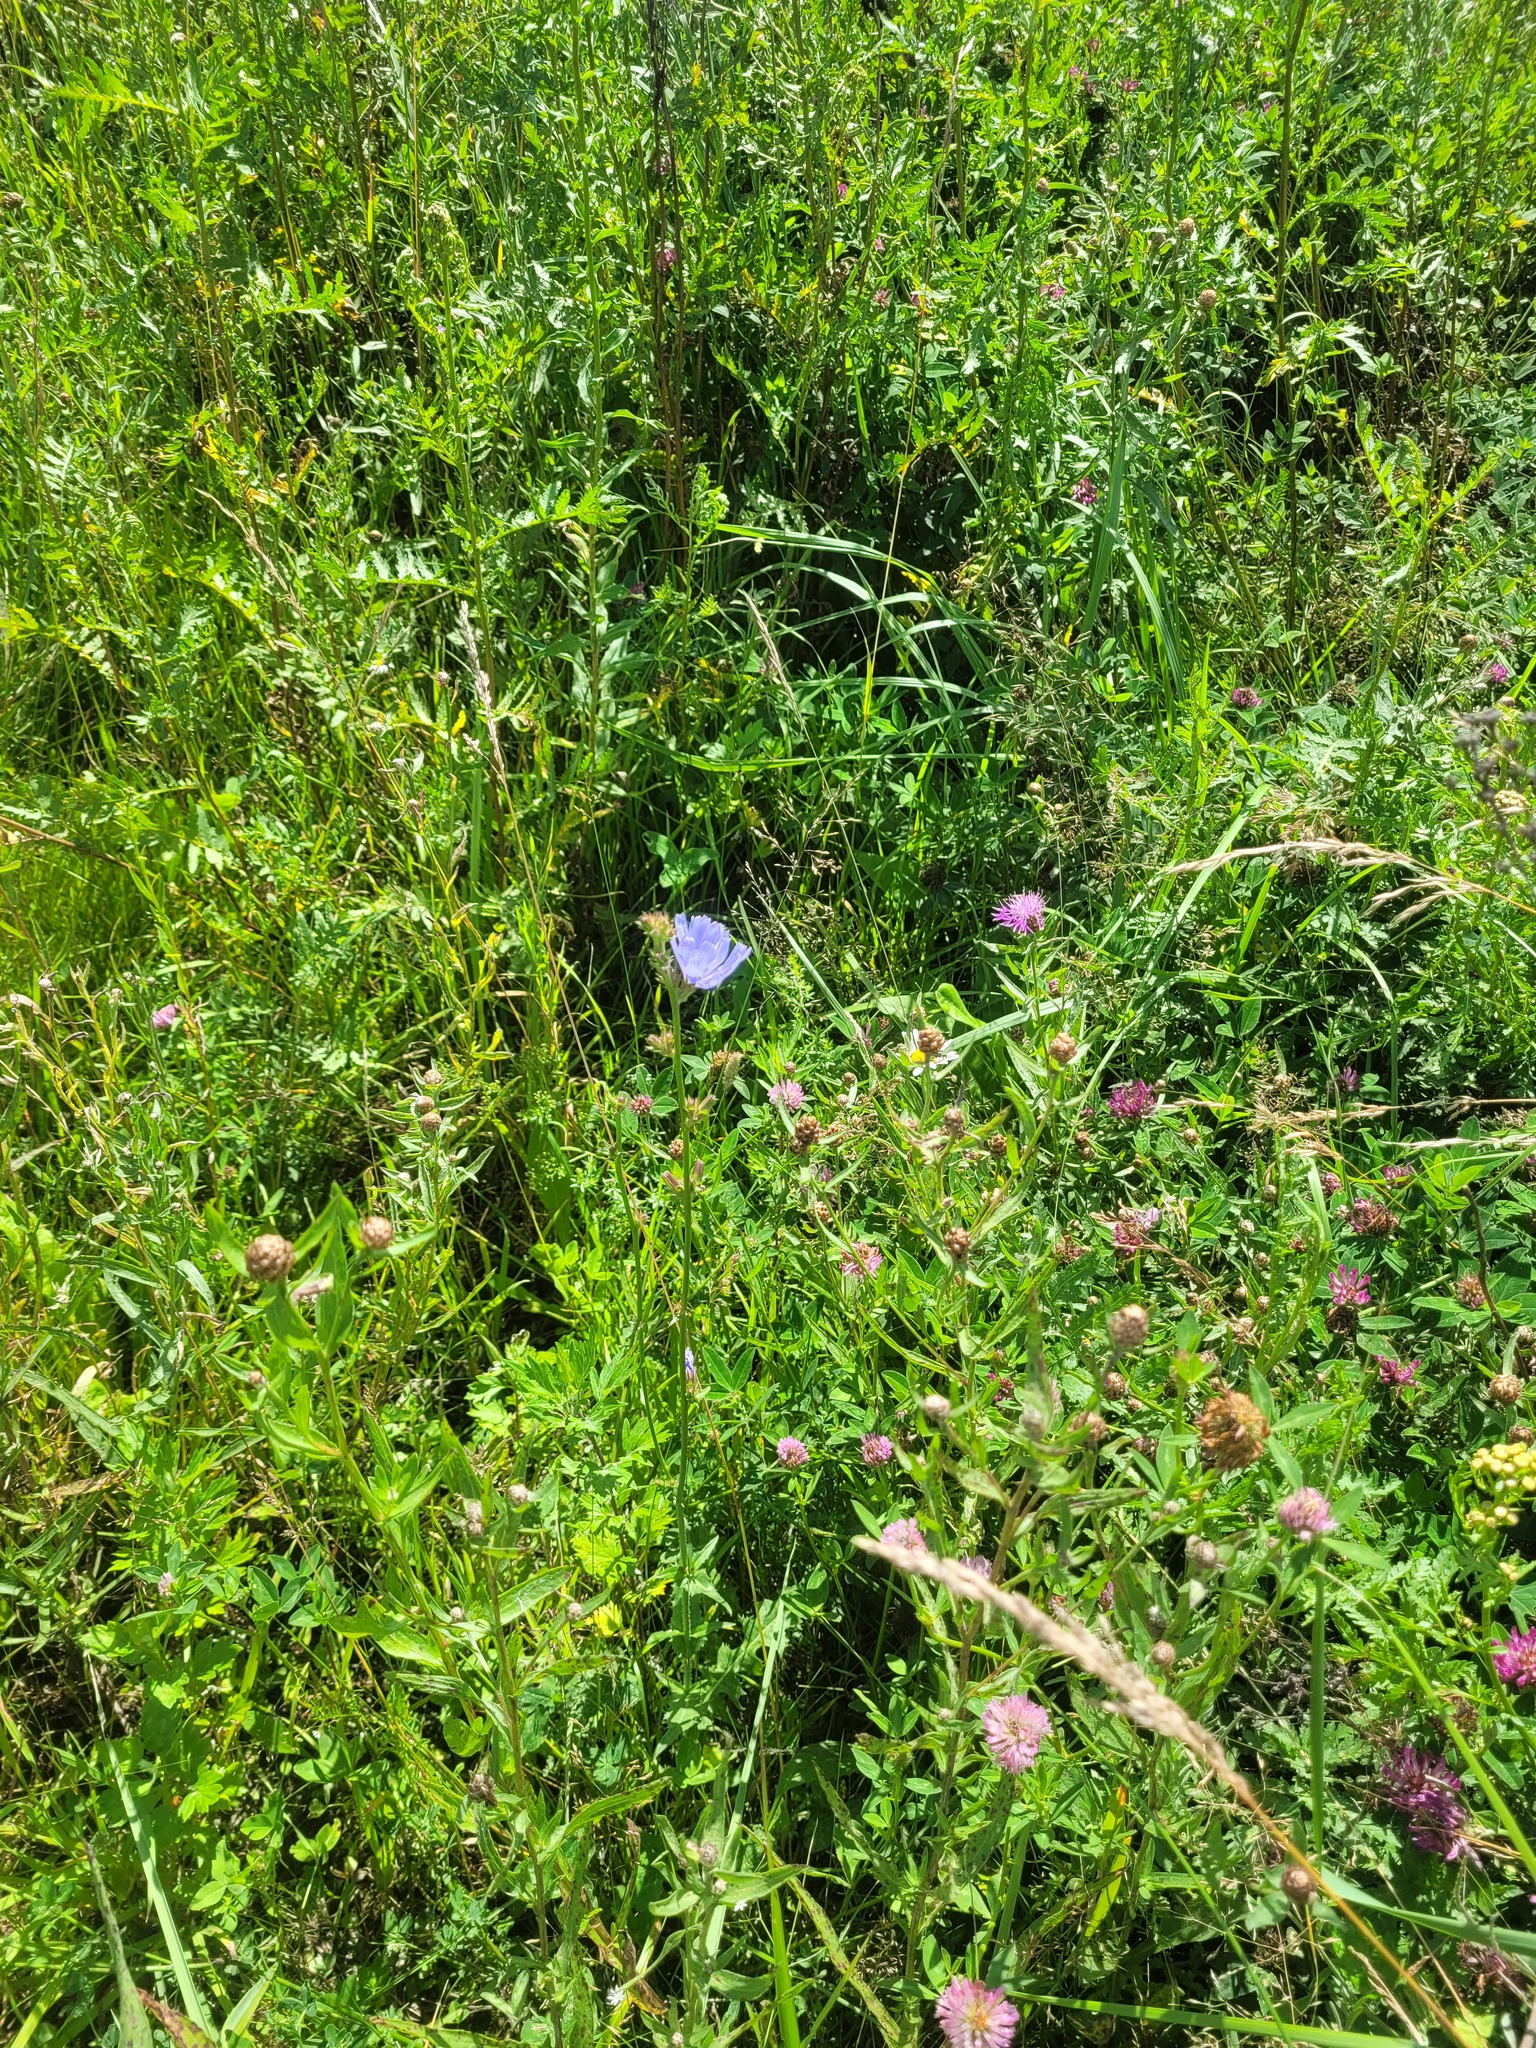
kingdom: Plantae
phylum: Tracheophyta
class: Magnoliopsida
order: Asterales
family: Asteraceae
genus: Cichorium
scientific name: Cichorium intybus
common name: Chicory
